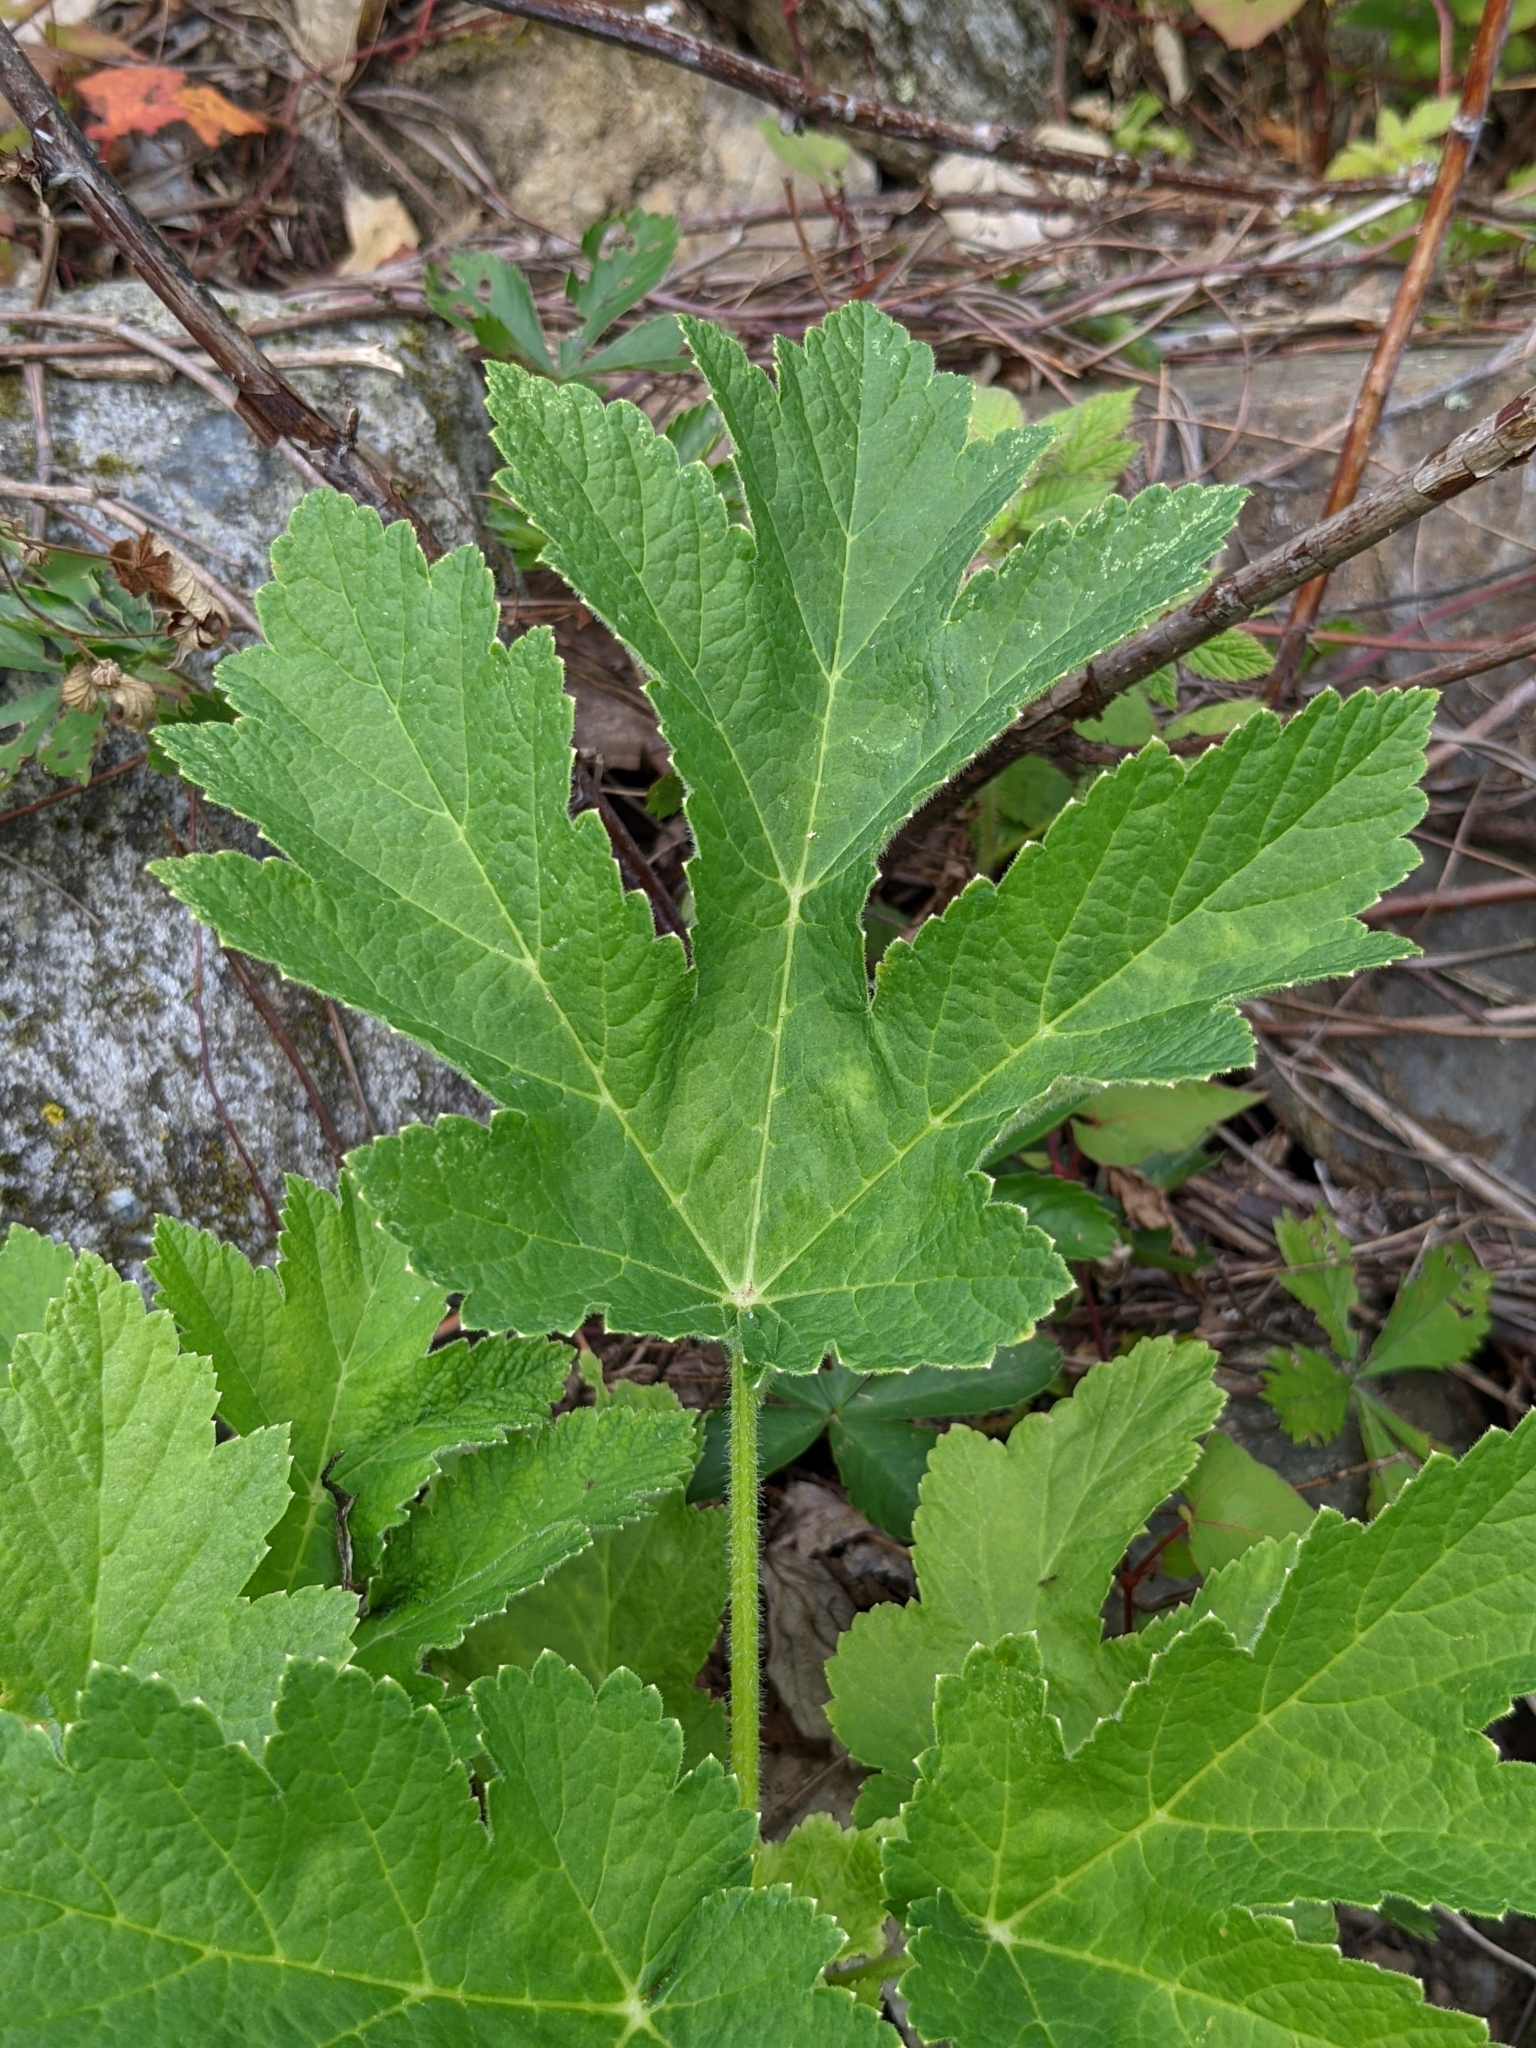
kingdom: Plantae
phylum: Tracheophyta
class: Magnoliopsida
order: Apiales
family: Apiaceae
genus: Heracleum
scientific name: Heracleum maximum
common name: American cow parsnip
